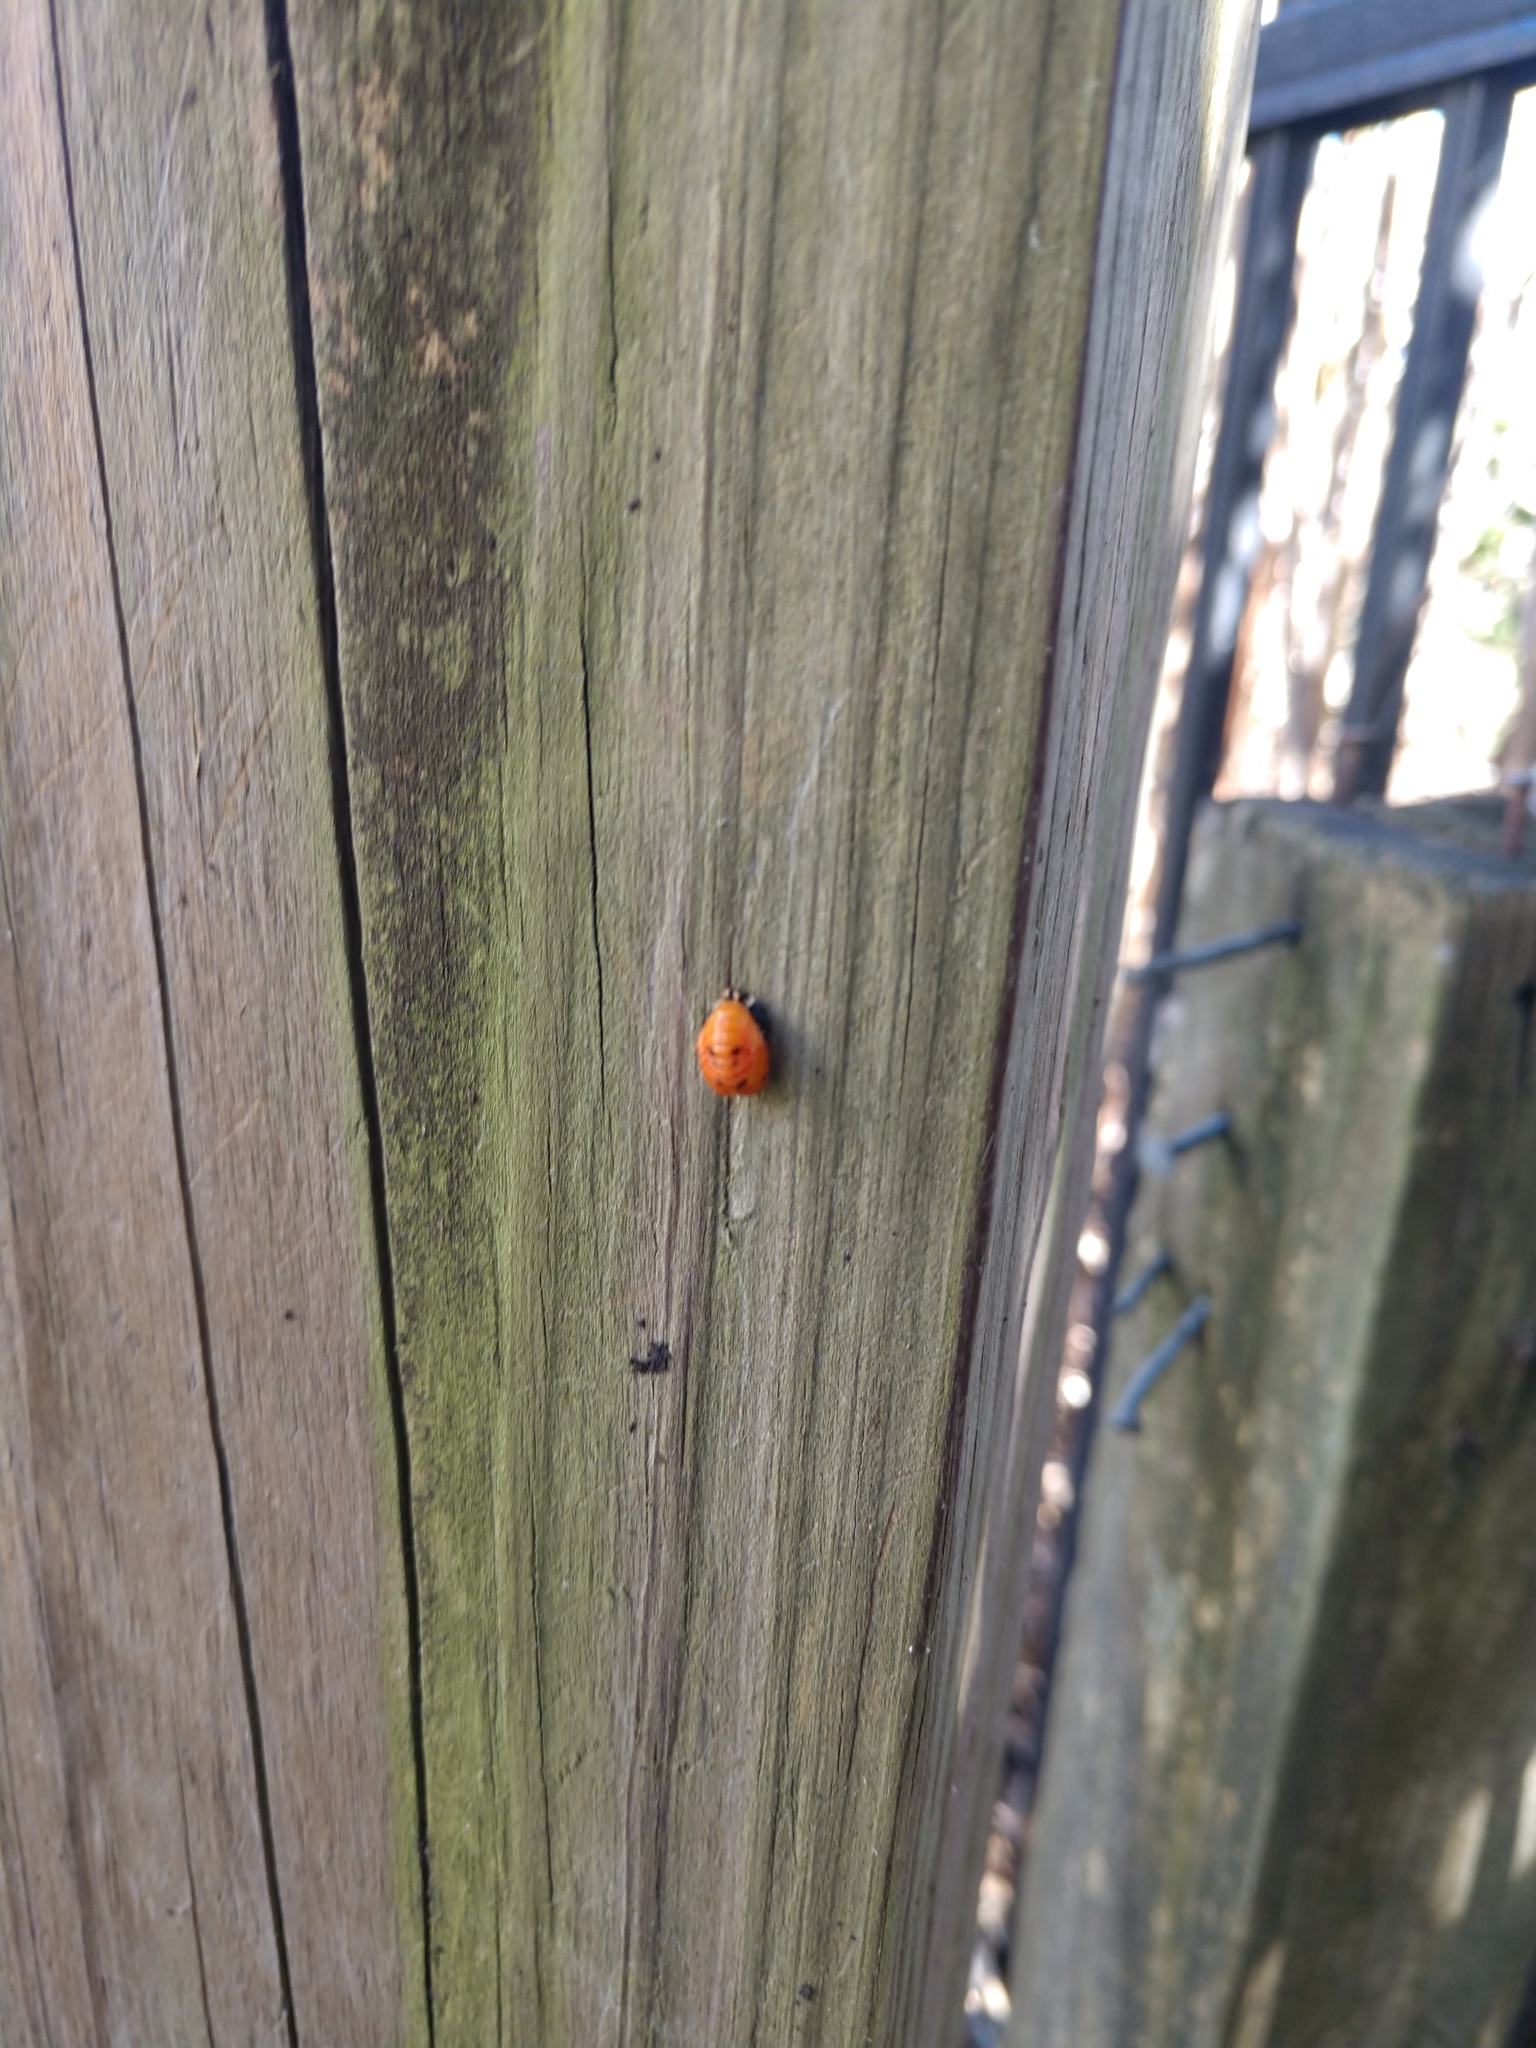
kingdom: Animalia
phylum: Arthropoda
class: Insecta
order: Coleoptera
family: Coccinellidae
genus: Harmonia
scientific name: Harmonia axyridis
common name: Harlequin ladybird
